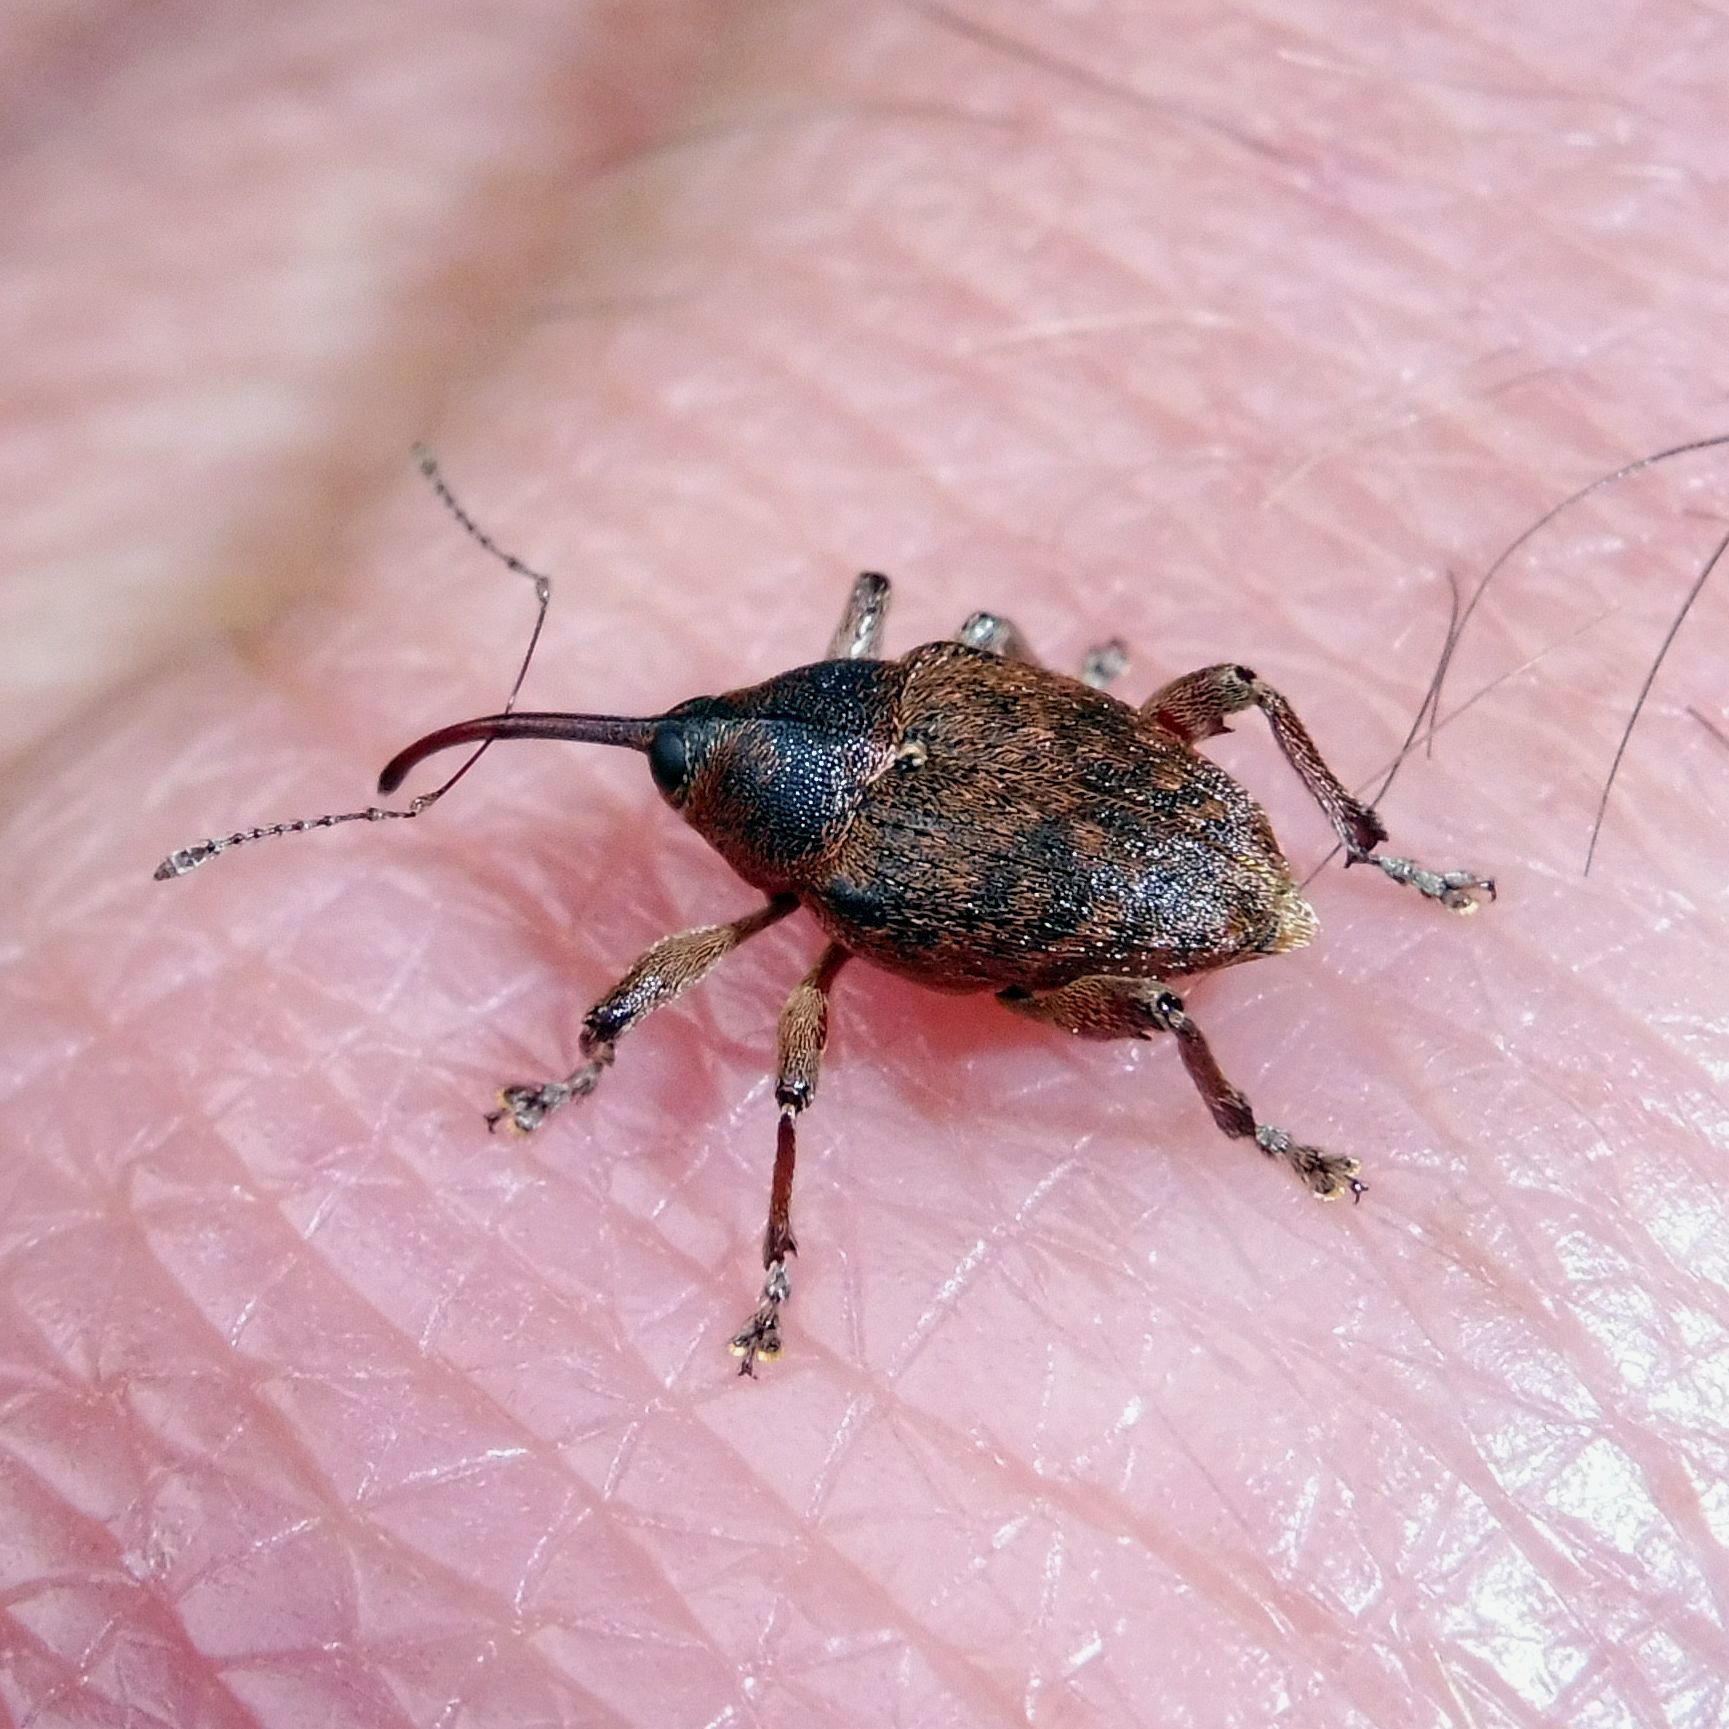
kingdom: Animalia
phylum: Arthropoda
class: Insecta
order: Coleoptera
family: Curculionidae
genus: Curculio
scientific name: Curculio glandium
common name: Acorn weevil
